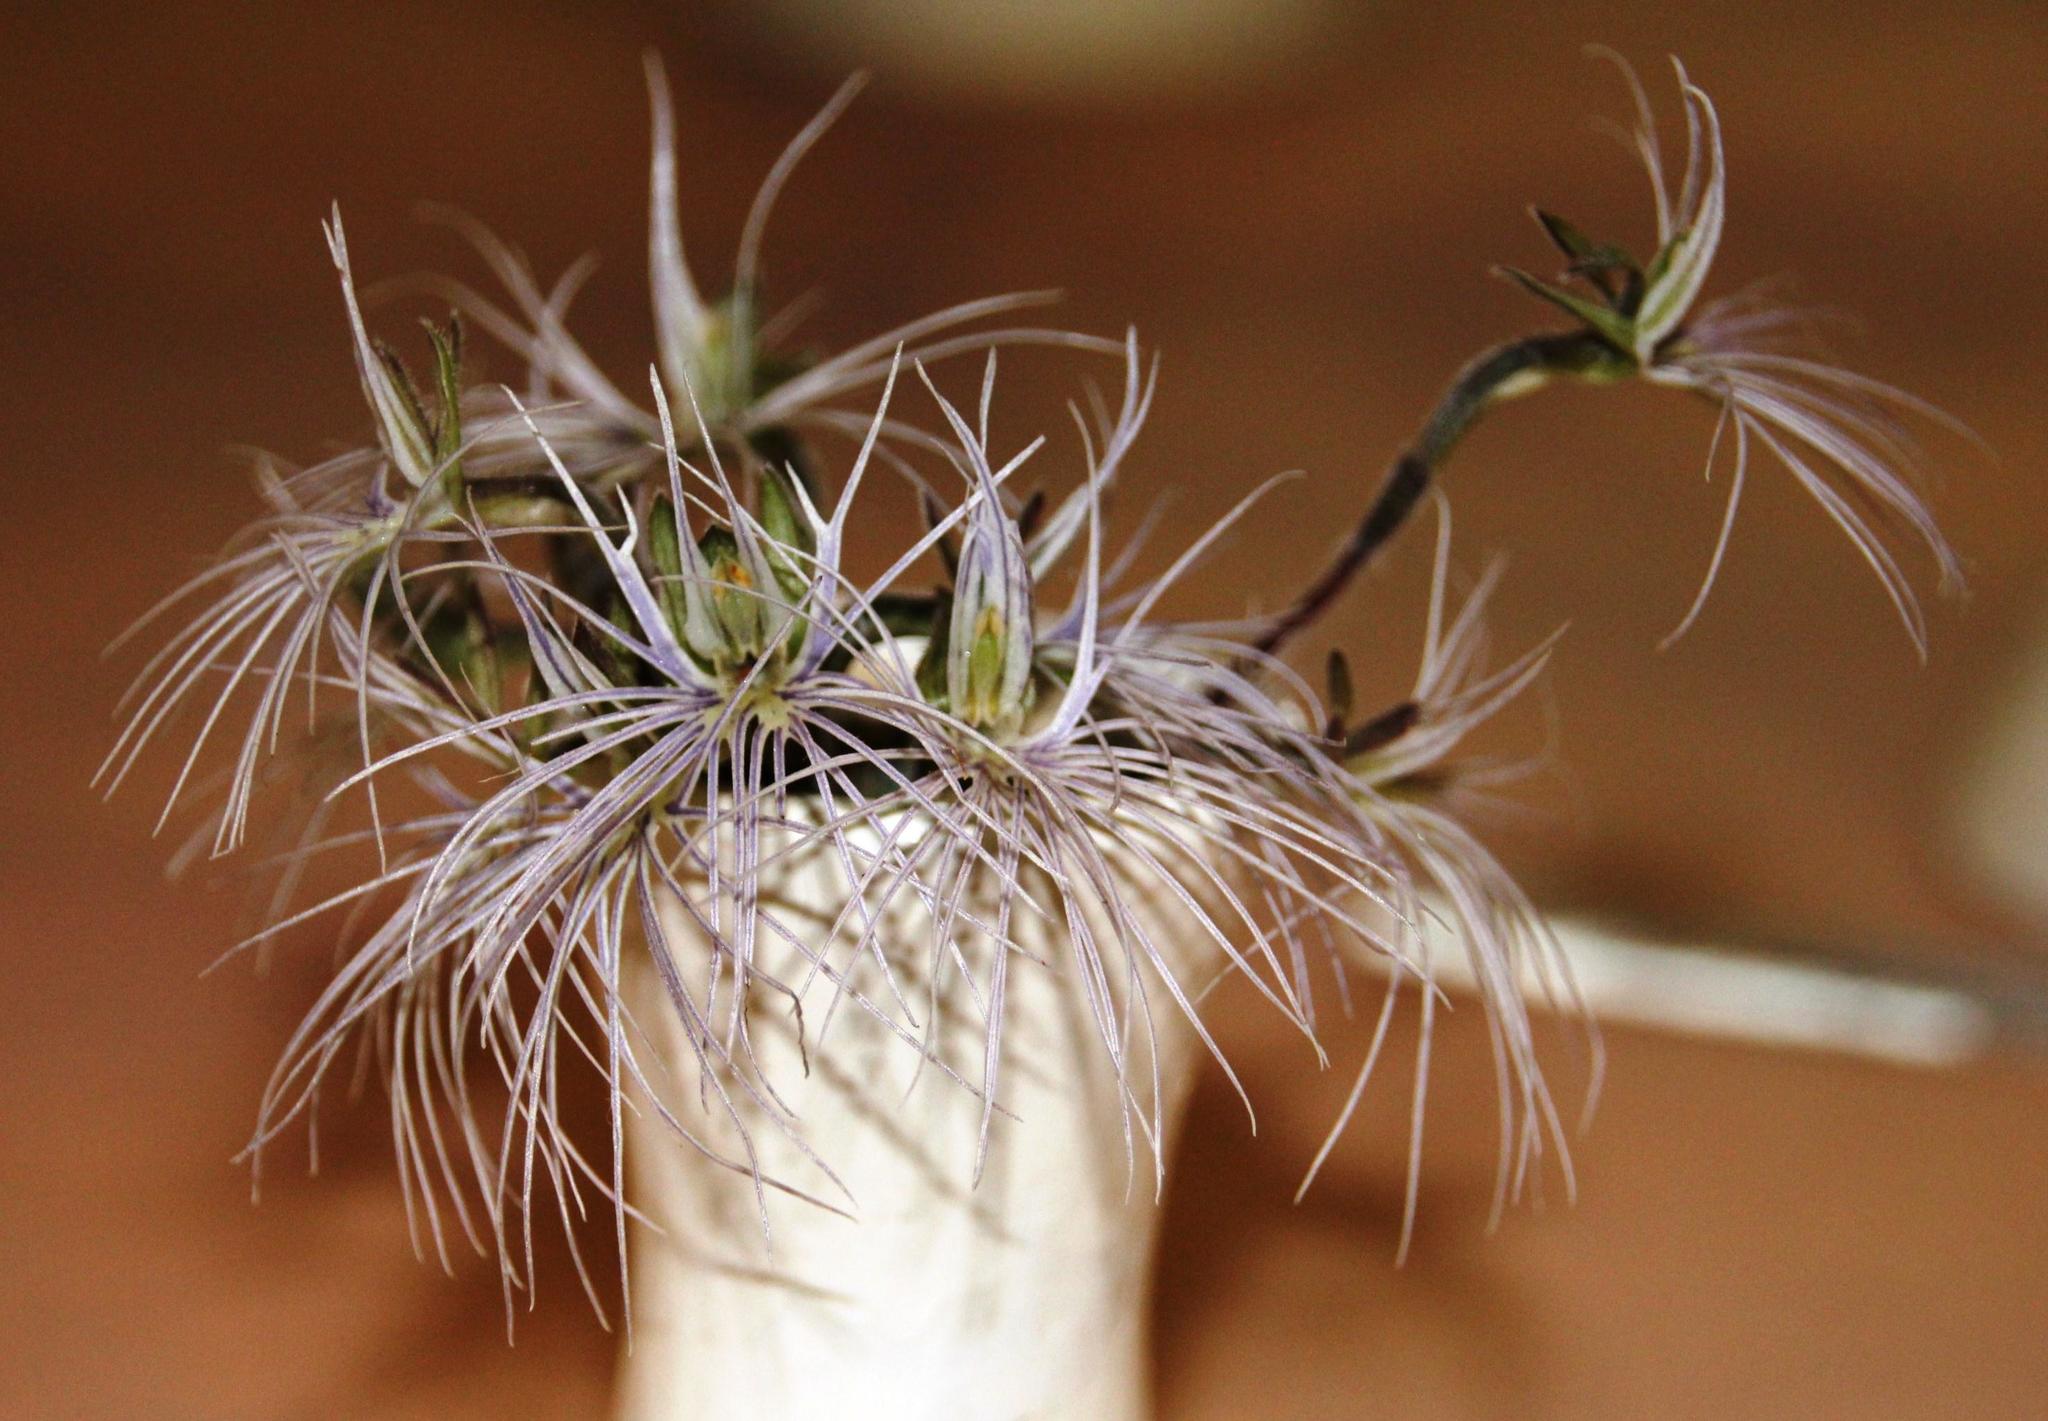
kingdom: Plantae
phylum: Tracheophyta
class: Liliopsida
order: Asparagales
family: Orchidaceae
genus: Holothrix
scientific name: Holothrix burmanniana
